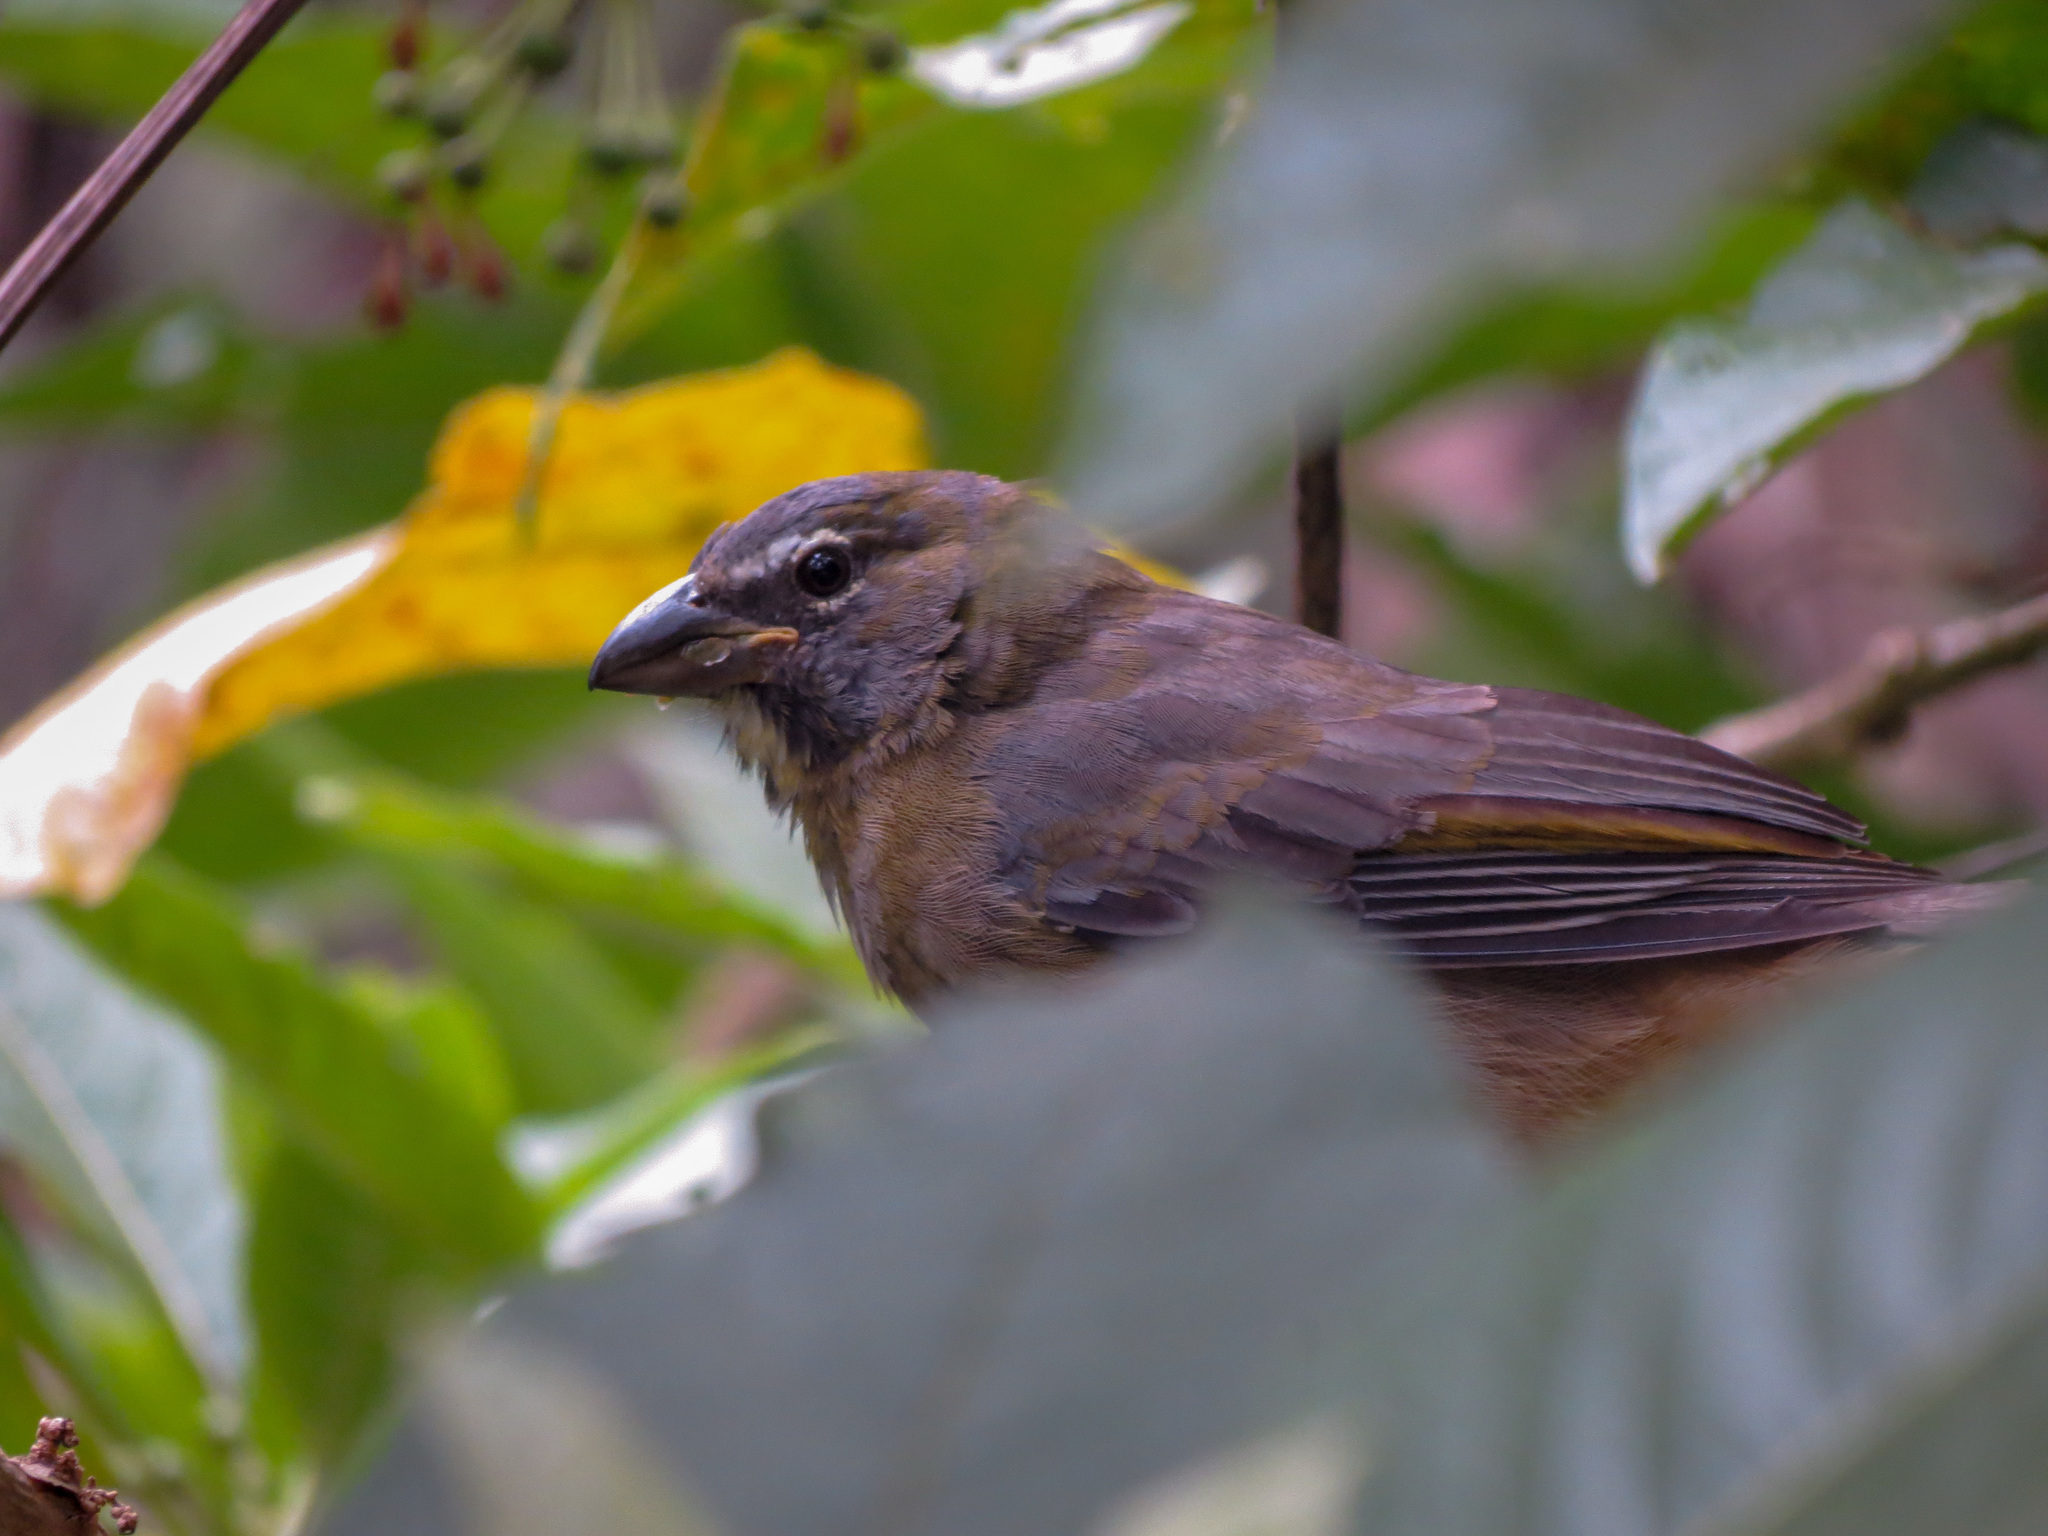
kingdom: Animalia
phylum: Chordata
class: Aves
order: Passeriformes
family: Thraupidae
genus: Saltator
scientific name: Saltator olivascens
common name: Caribbean grey saltator
